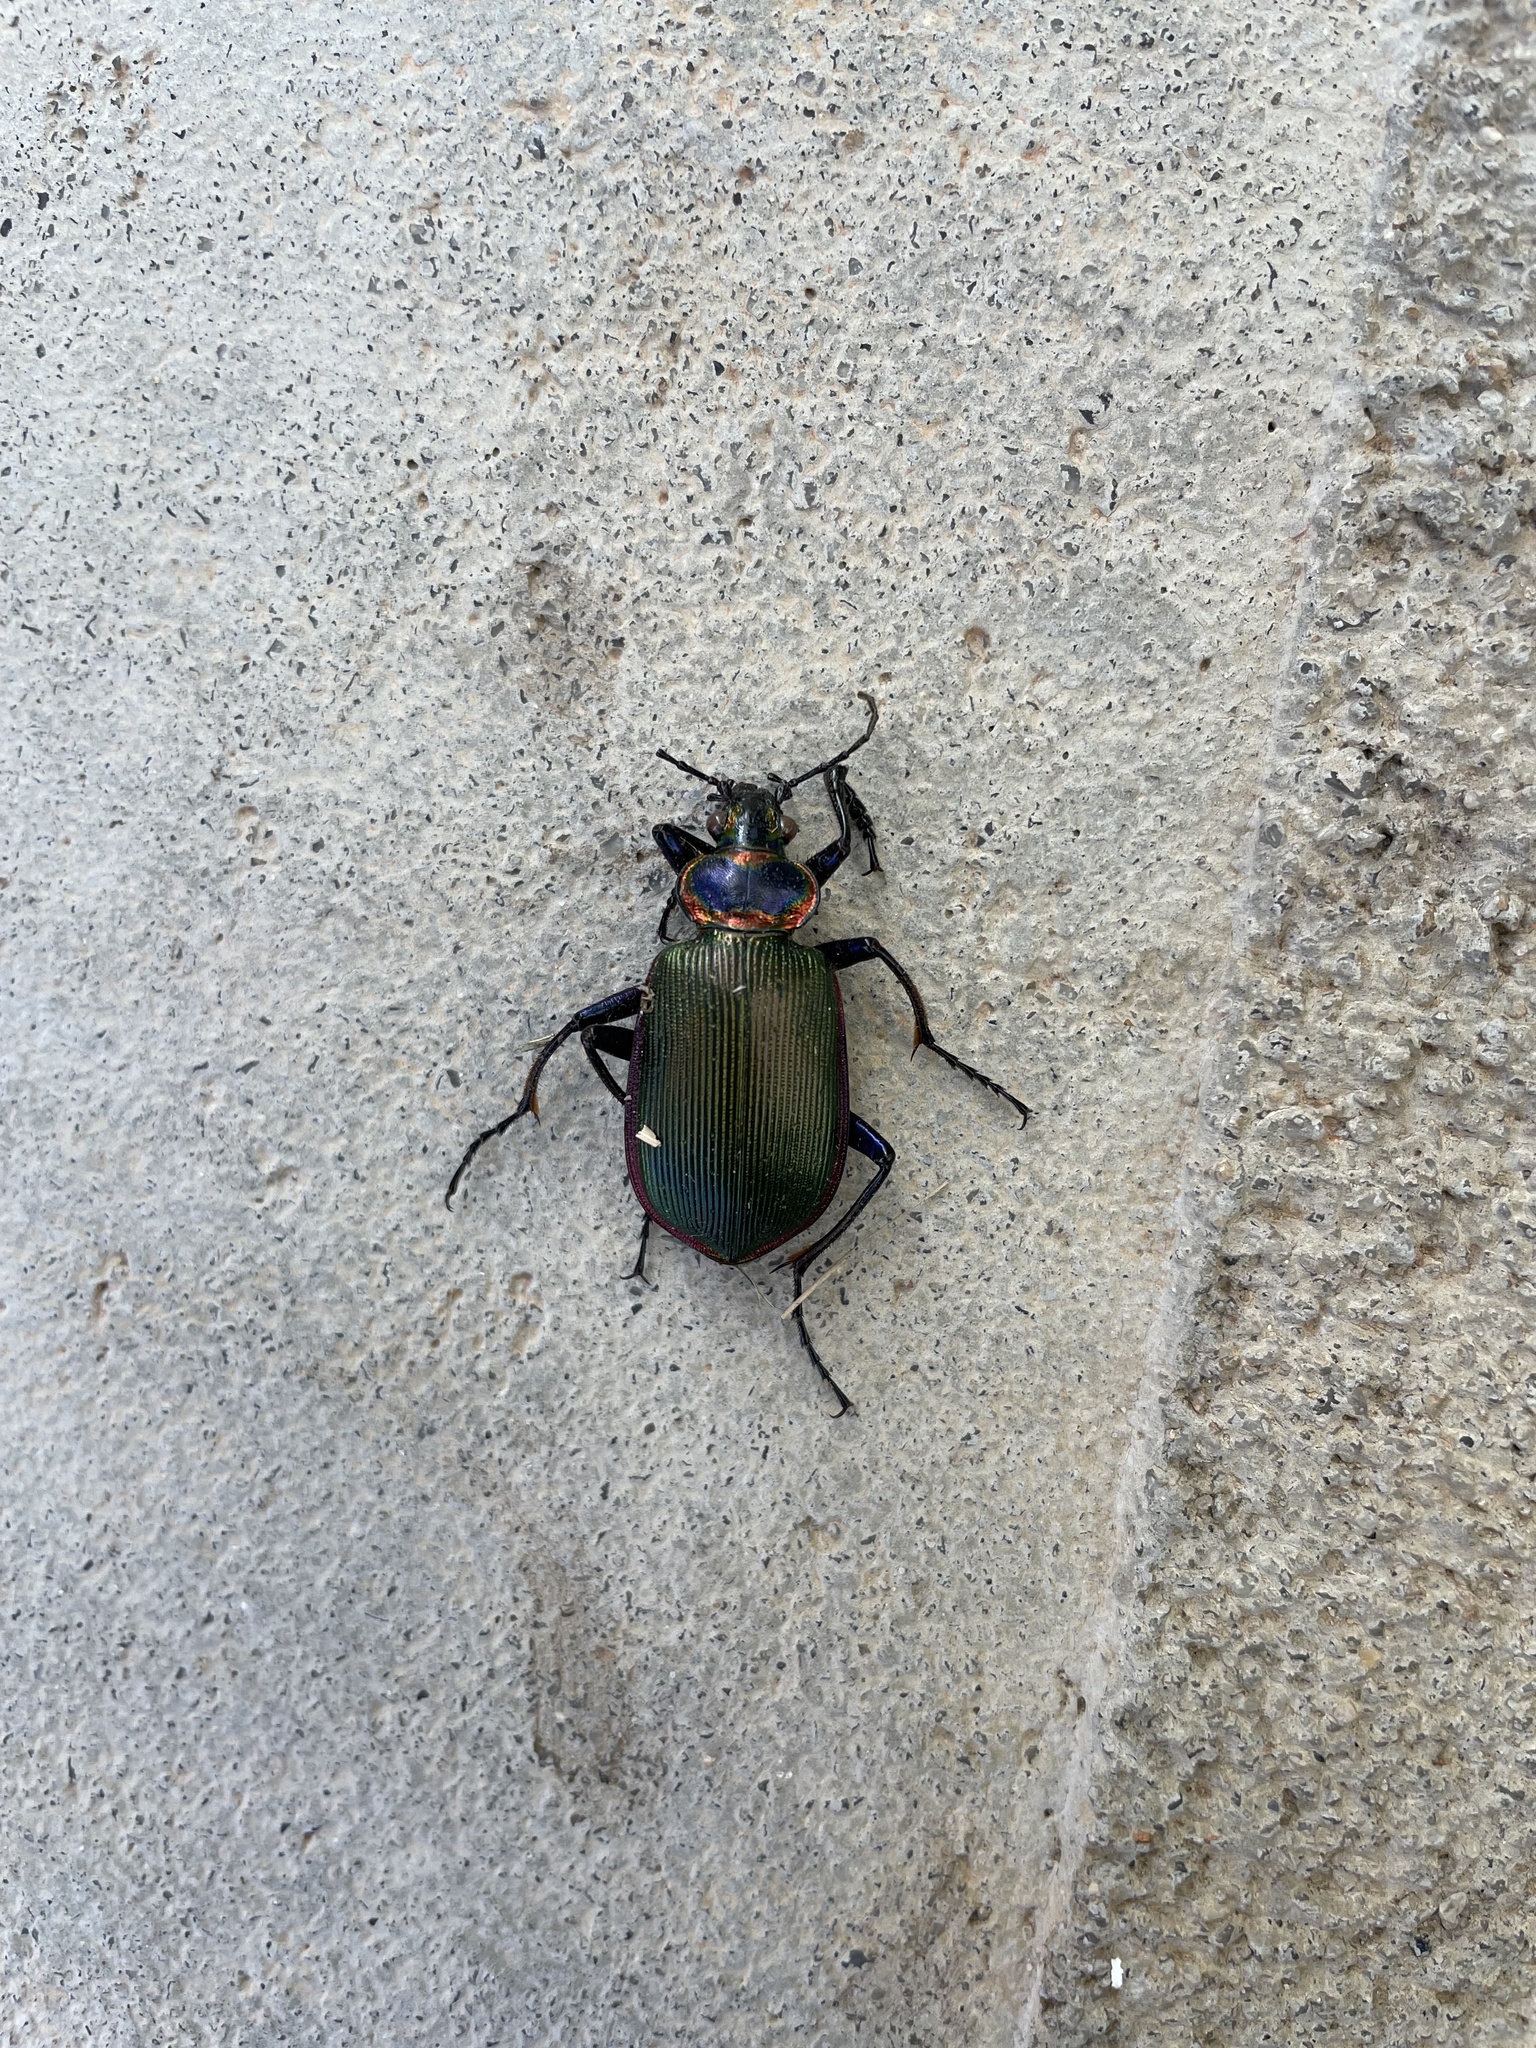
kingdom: Animalia
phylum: Arthropoda
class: Insecta
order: Coleoptera
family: Carabidae
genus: Calosoma
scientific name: Calosoma scrutator
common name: Fiery searcher beetle
